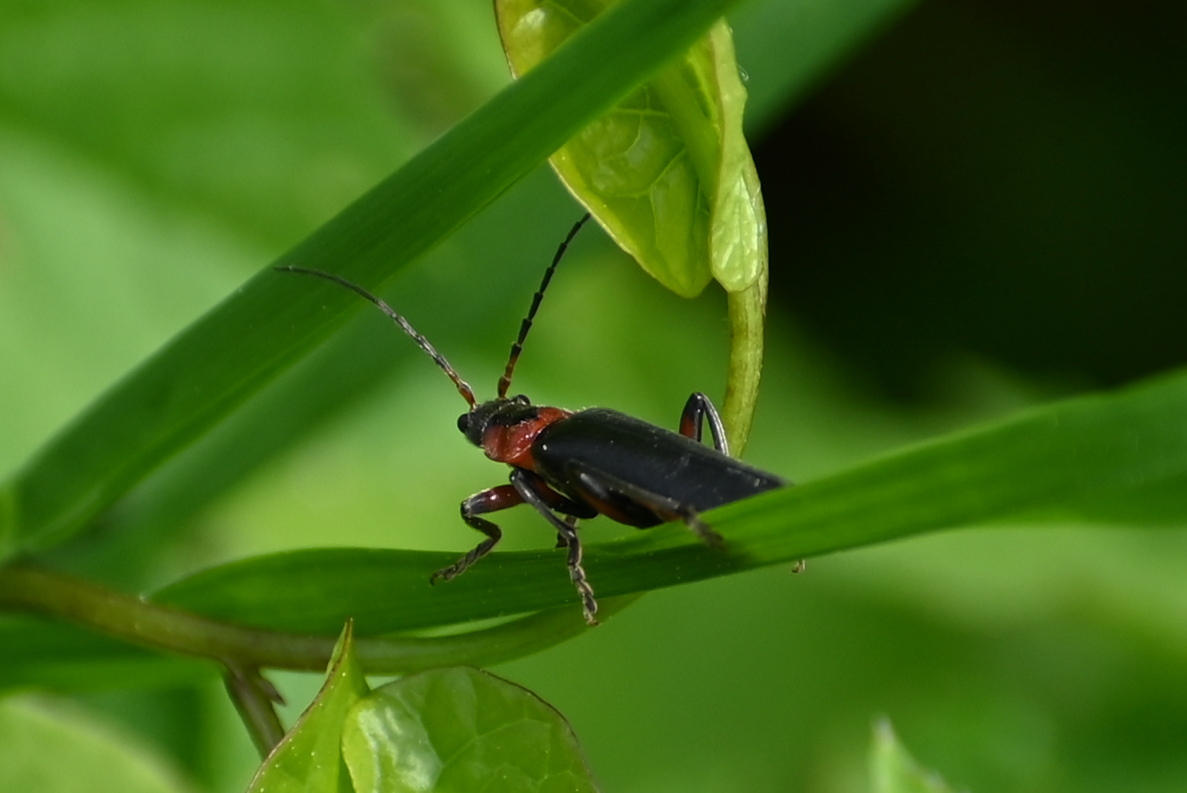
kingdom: Animalia
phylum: Arthropoda
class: Insecta
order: Coleoptera
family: Cantharidae
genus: Cantharis
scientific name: Cantharis rustica
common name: Soldier beetle
